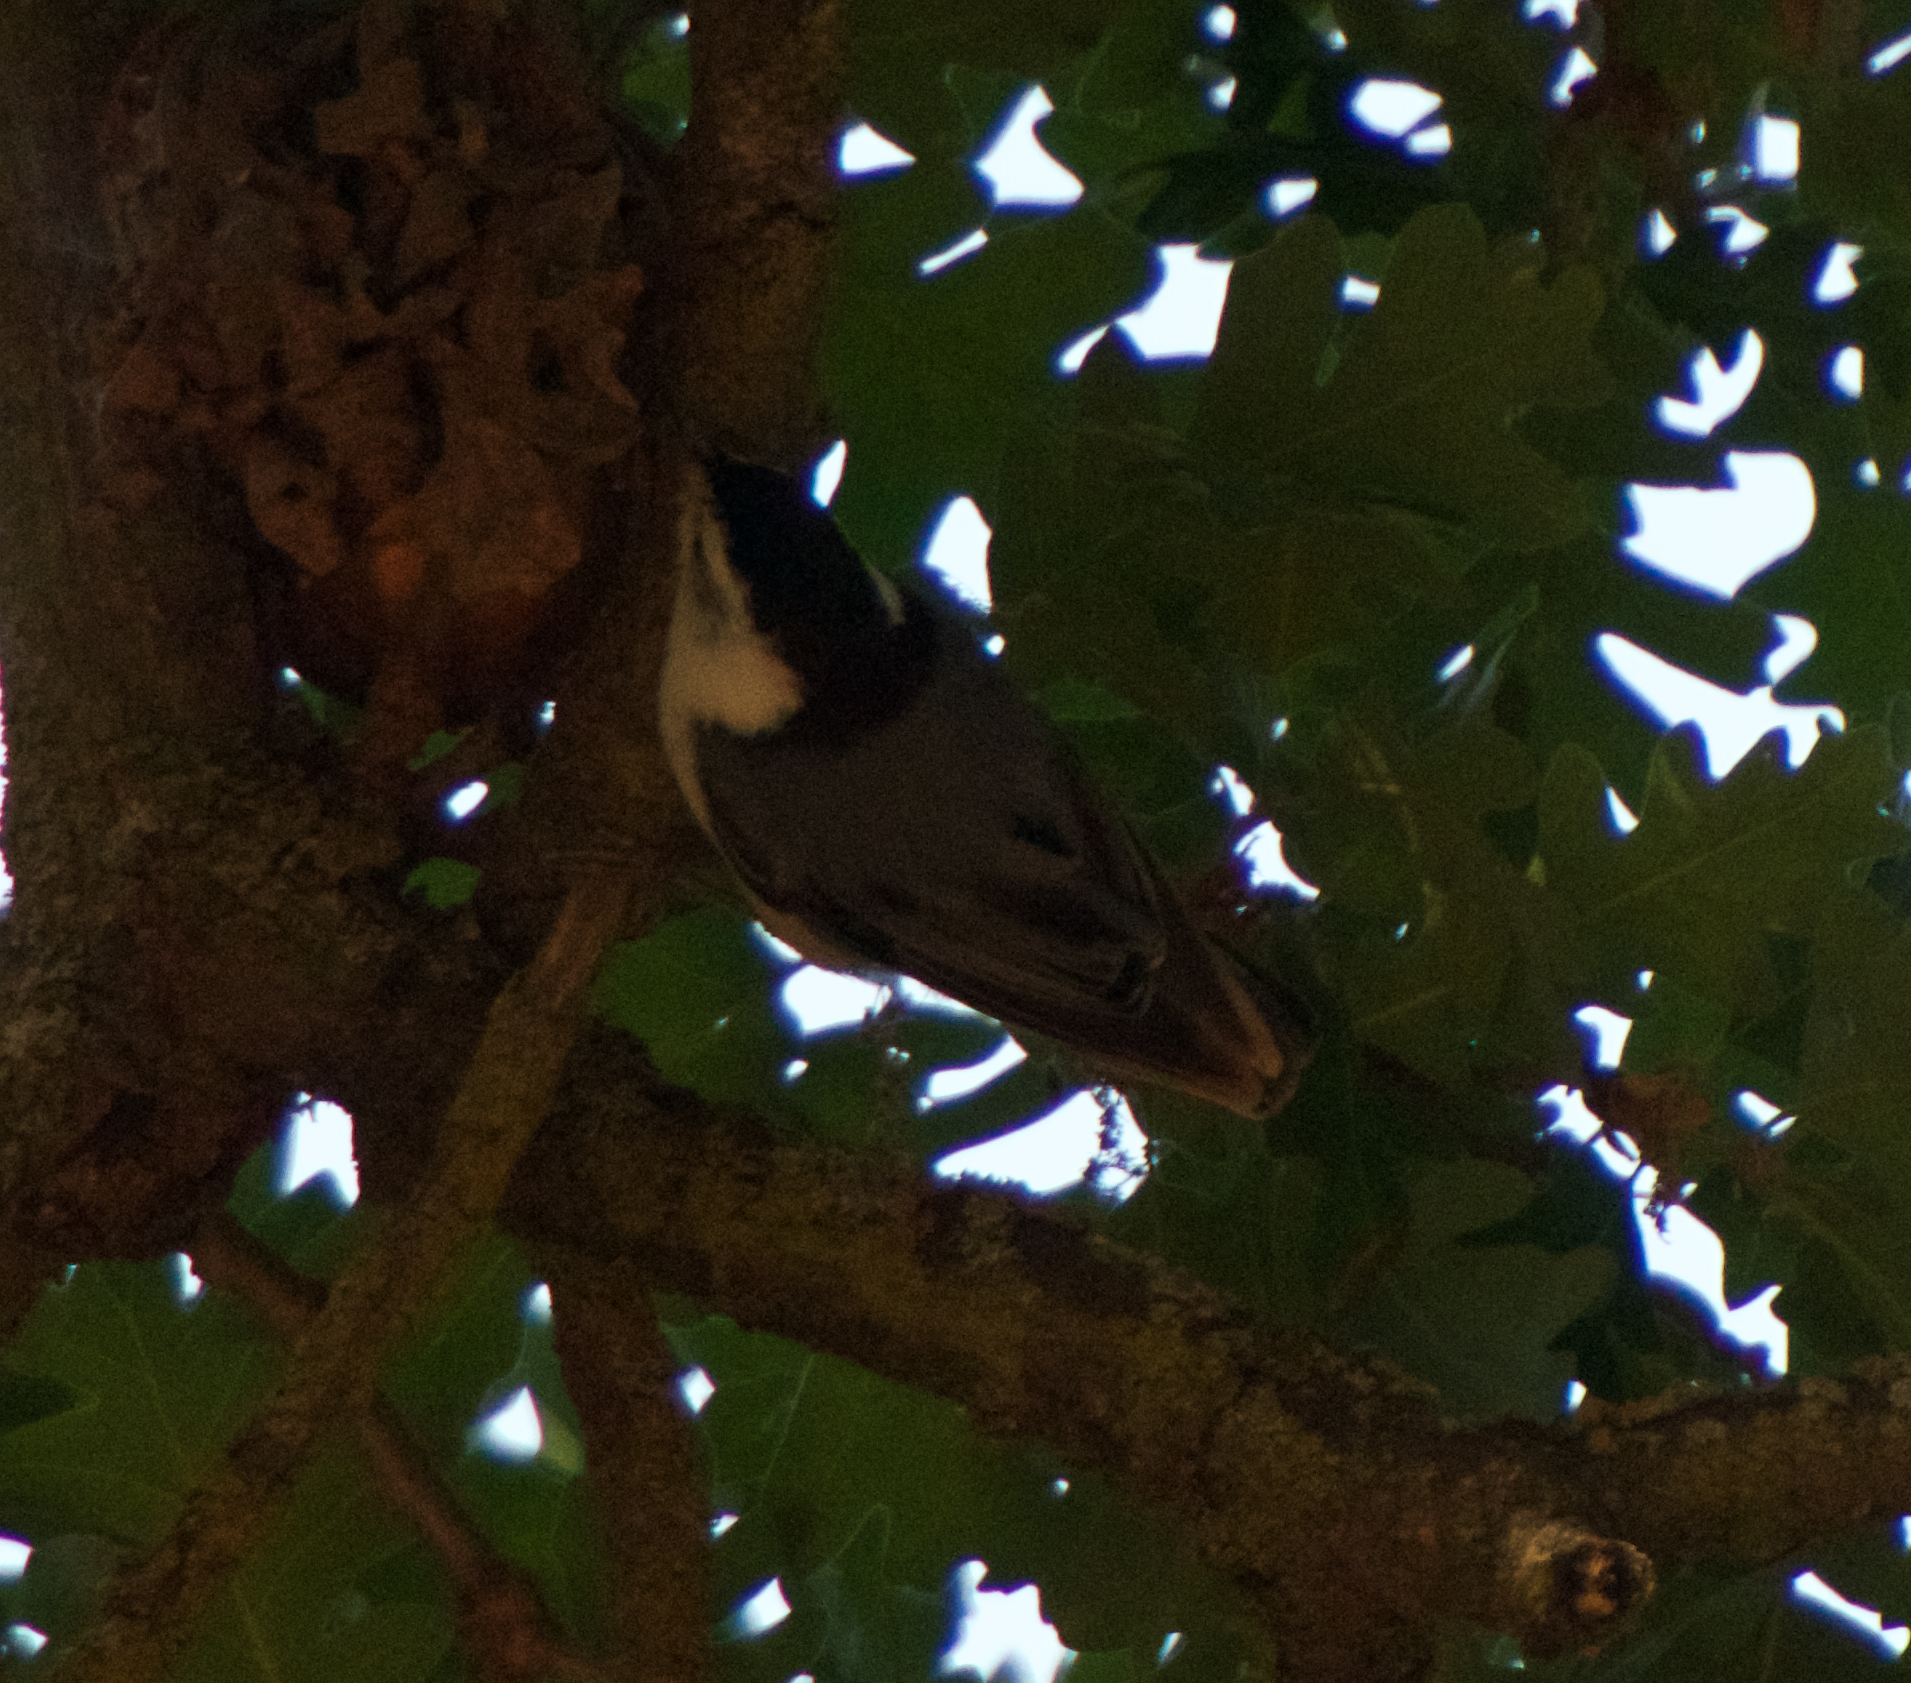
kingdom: Animalia
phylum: Chordata
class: Aves
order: Passeriformes
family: Sittidae
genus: Sitta
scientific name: Sitta carolinensis
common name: White-breasted nuthatch
